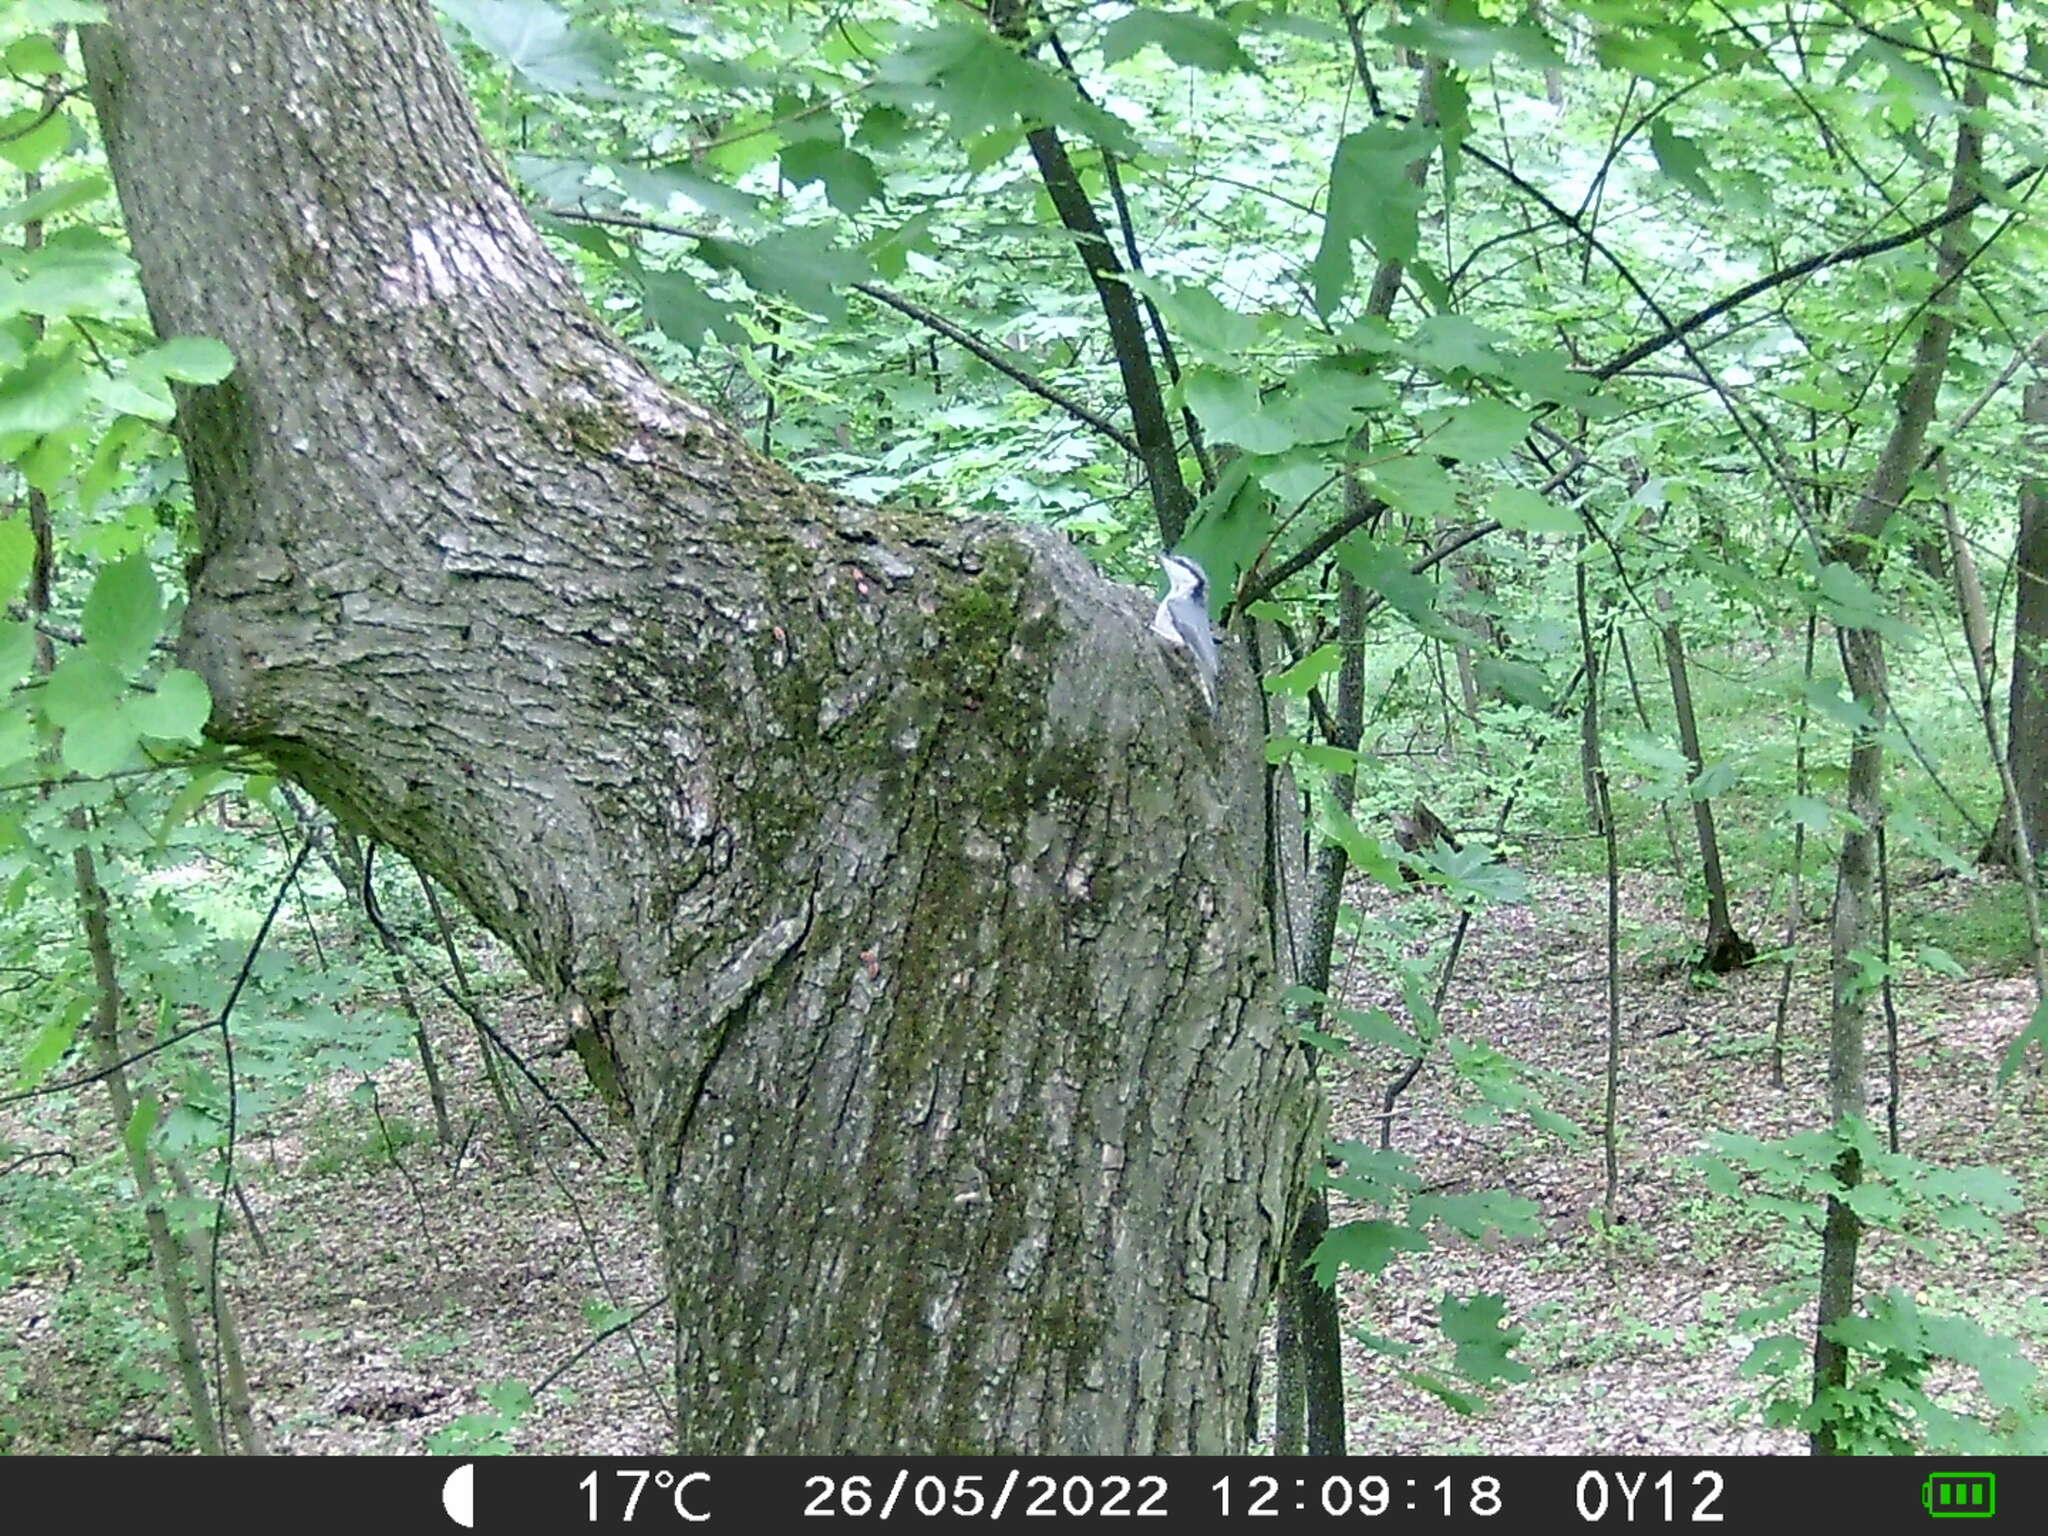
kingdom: Animalia
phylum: Chordata
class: Aves
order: Passeriformes
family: Sittidae
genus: Sitta
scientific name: Sitta europaea
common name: Eurasian nuthatch
